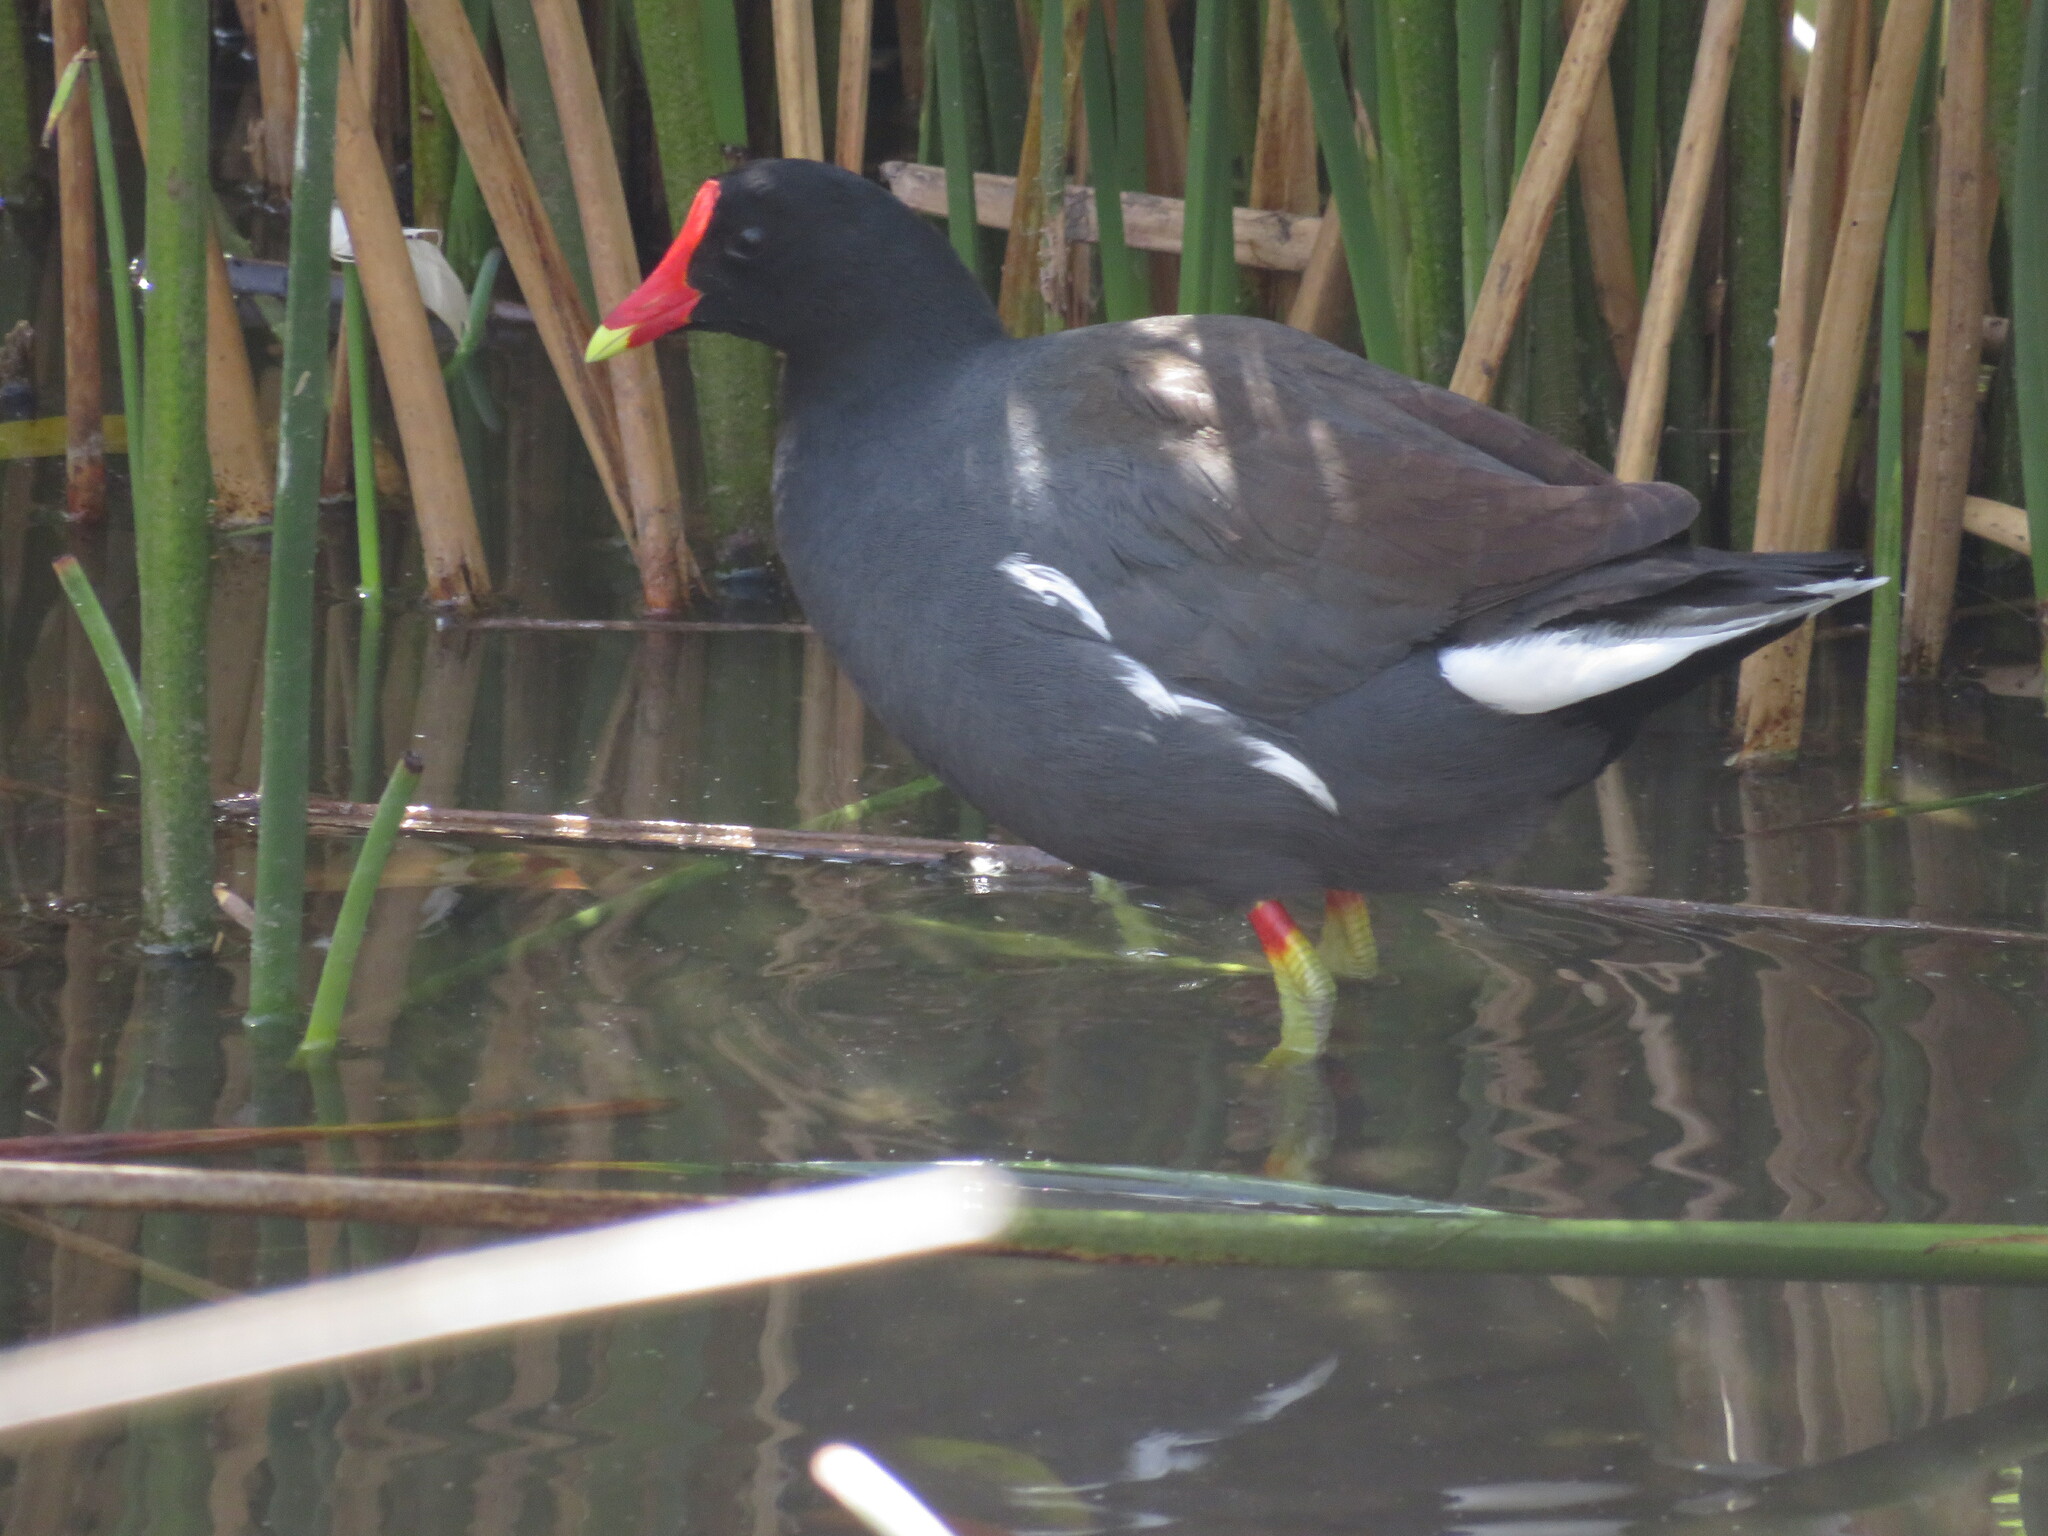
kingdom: Animalia
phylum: Chordata
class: Aves
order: Gruiformes
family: Rallidae
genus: Gallinula
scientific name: Gallinula chloropus
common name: Common moorhen
